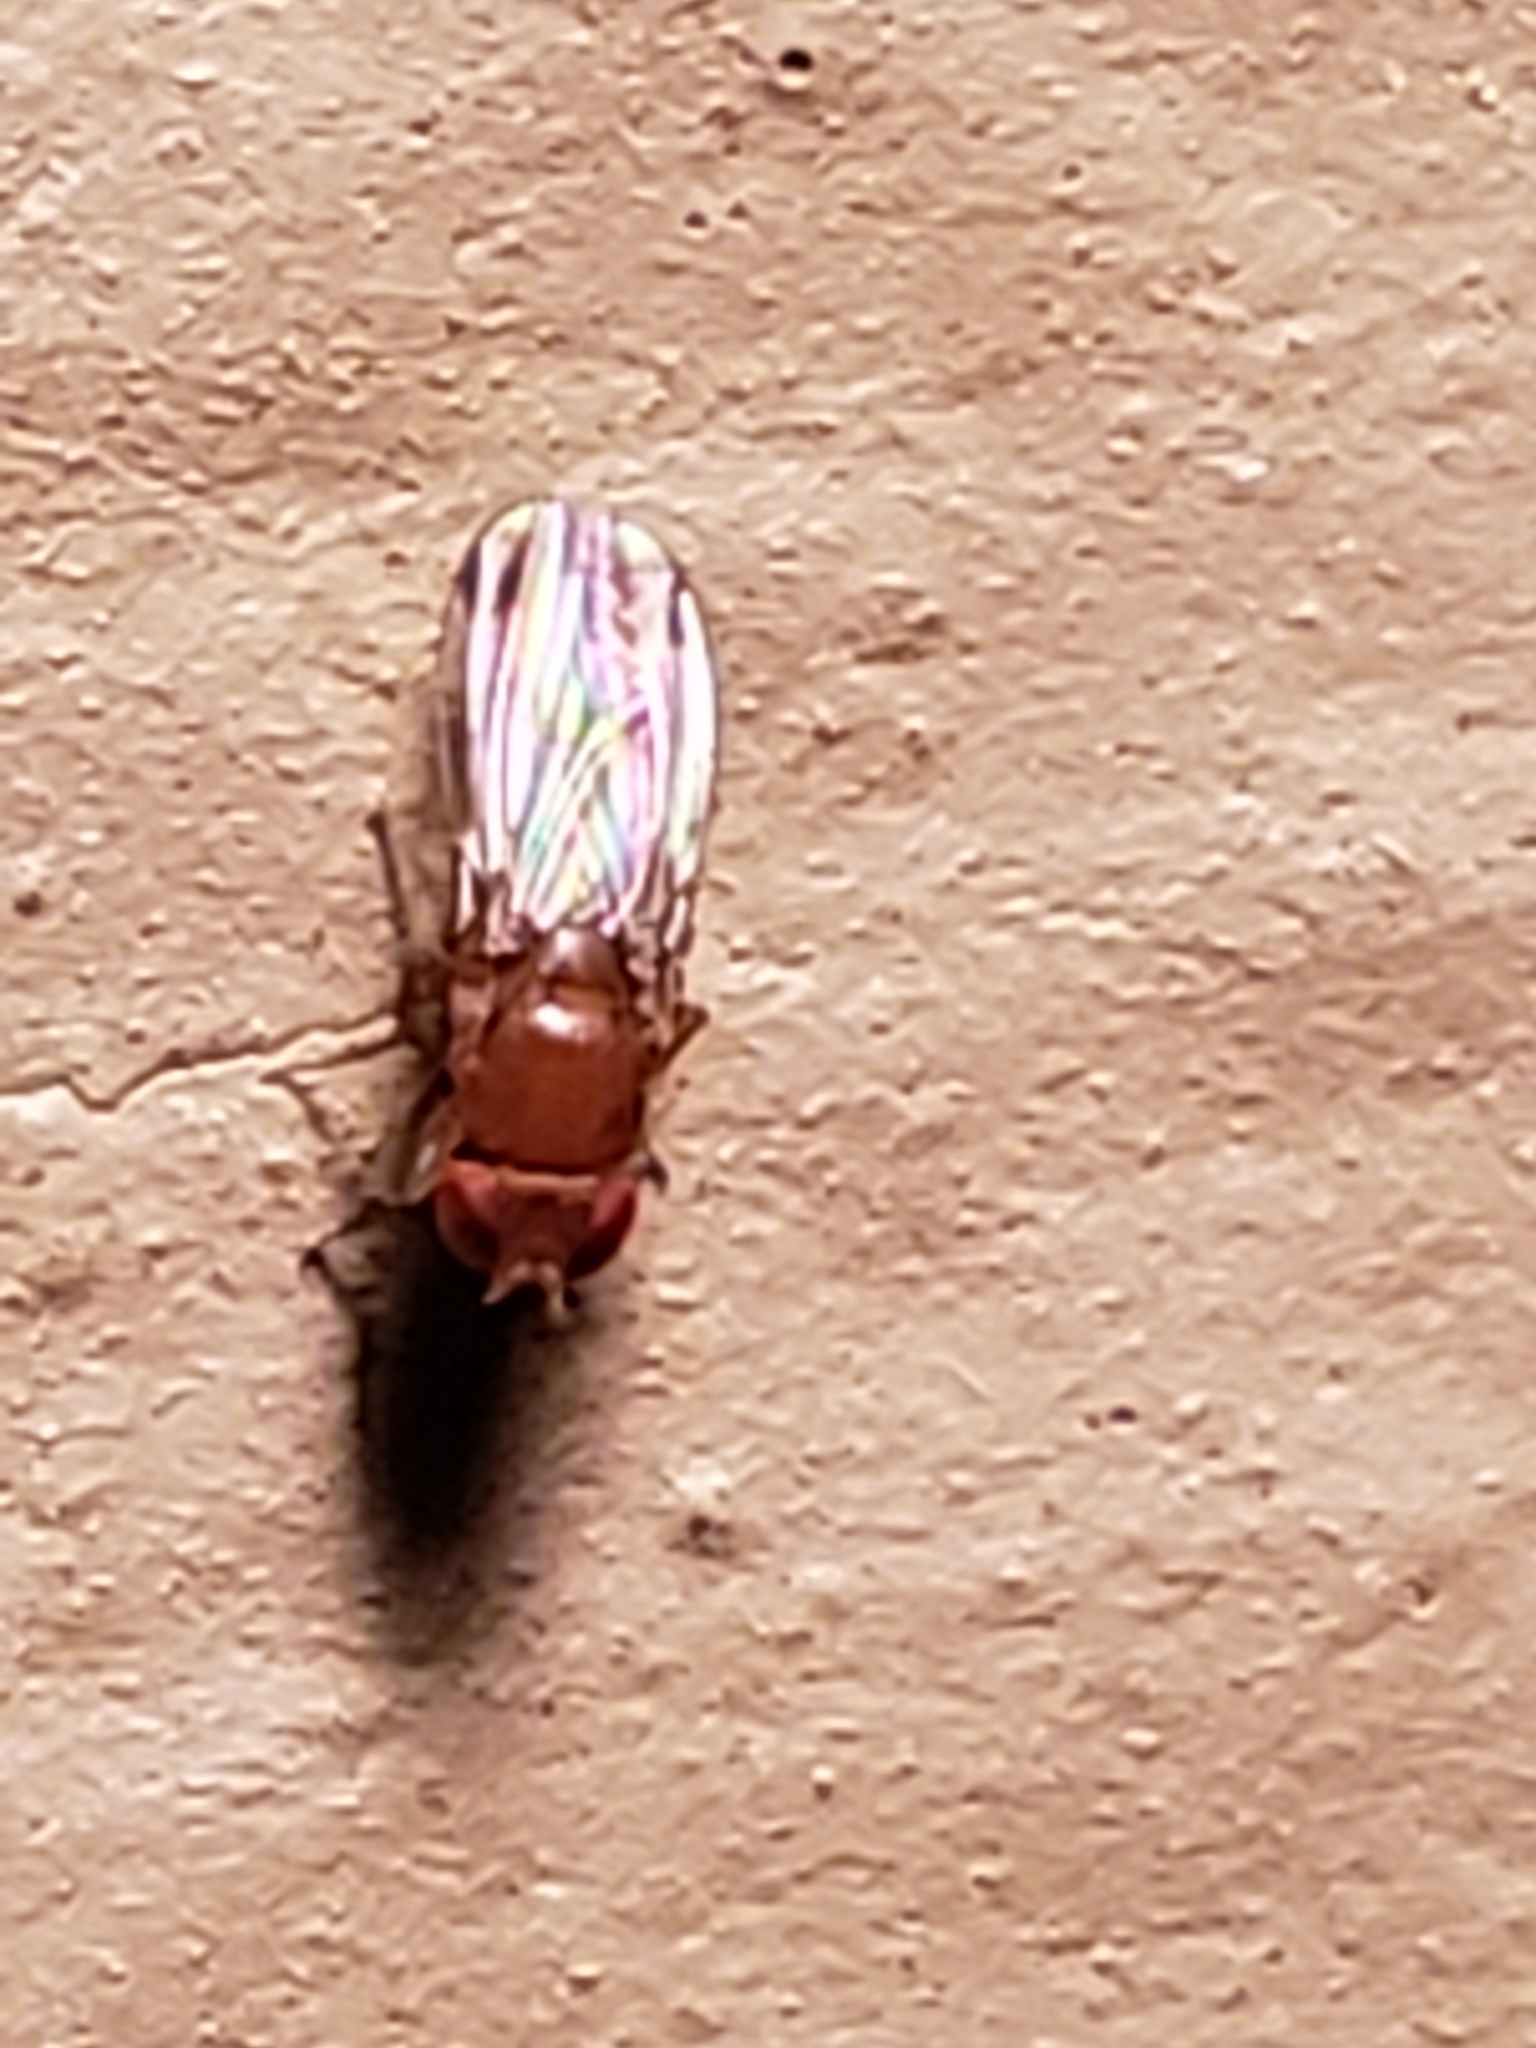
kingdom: Animalia
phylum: Arthropoda
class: Insecta
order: Diptera
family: Drosophilidae
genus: Drosophila
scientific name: Drosophila suzukii
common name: Spotted-wing drosophila
